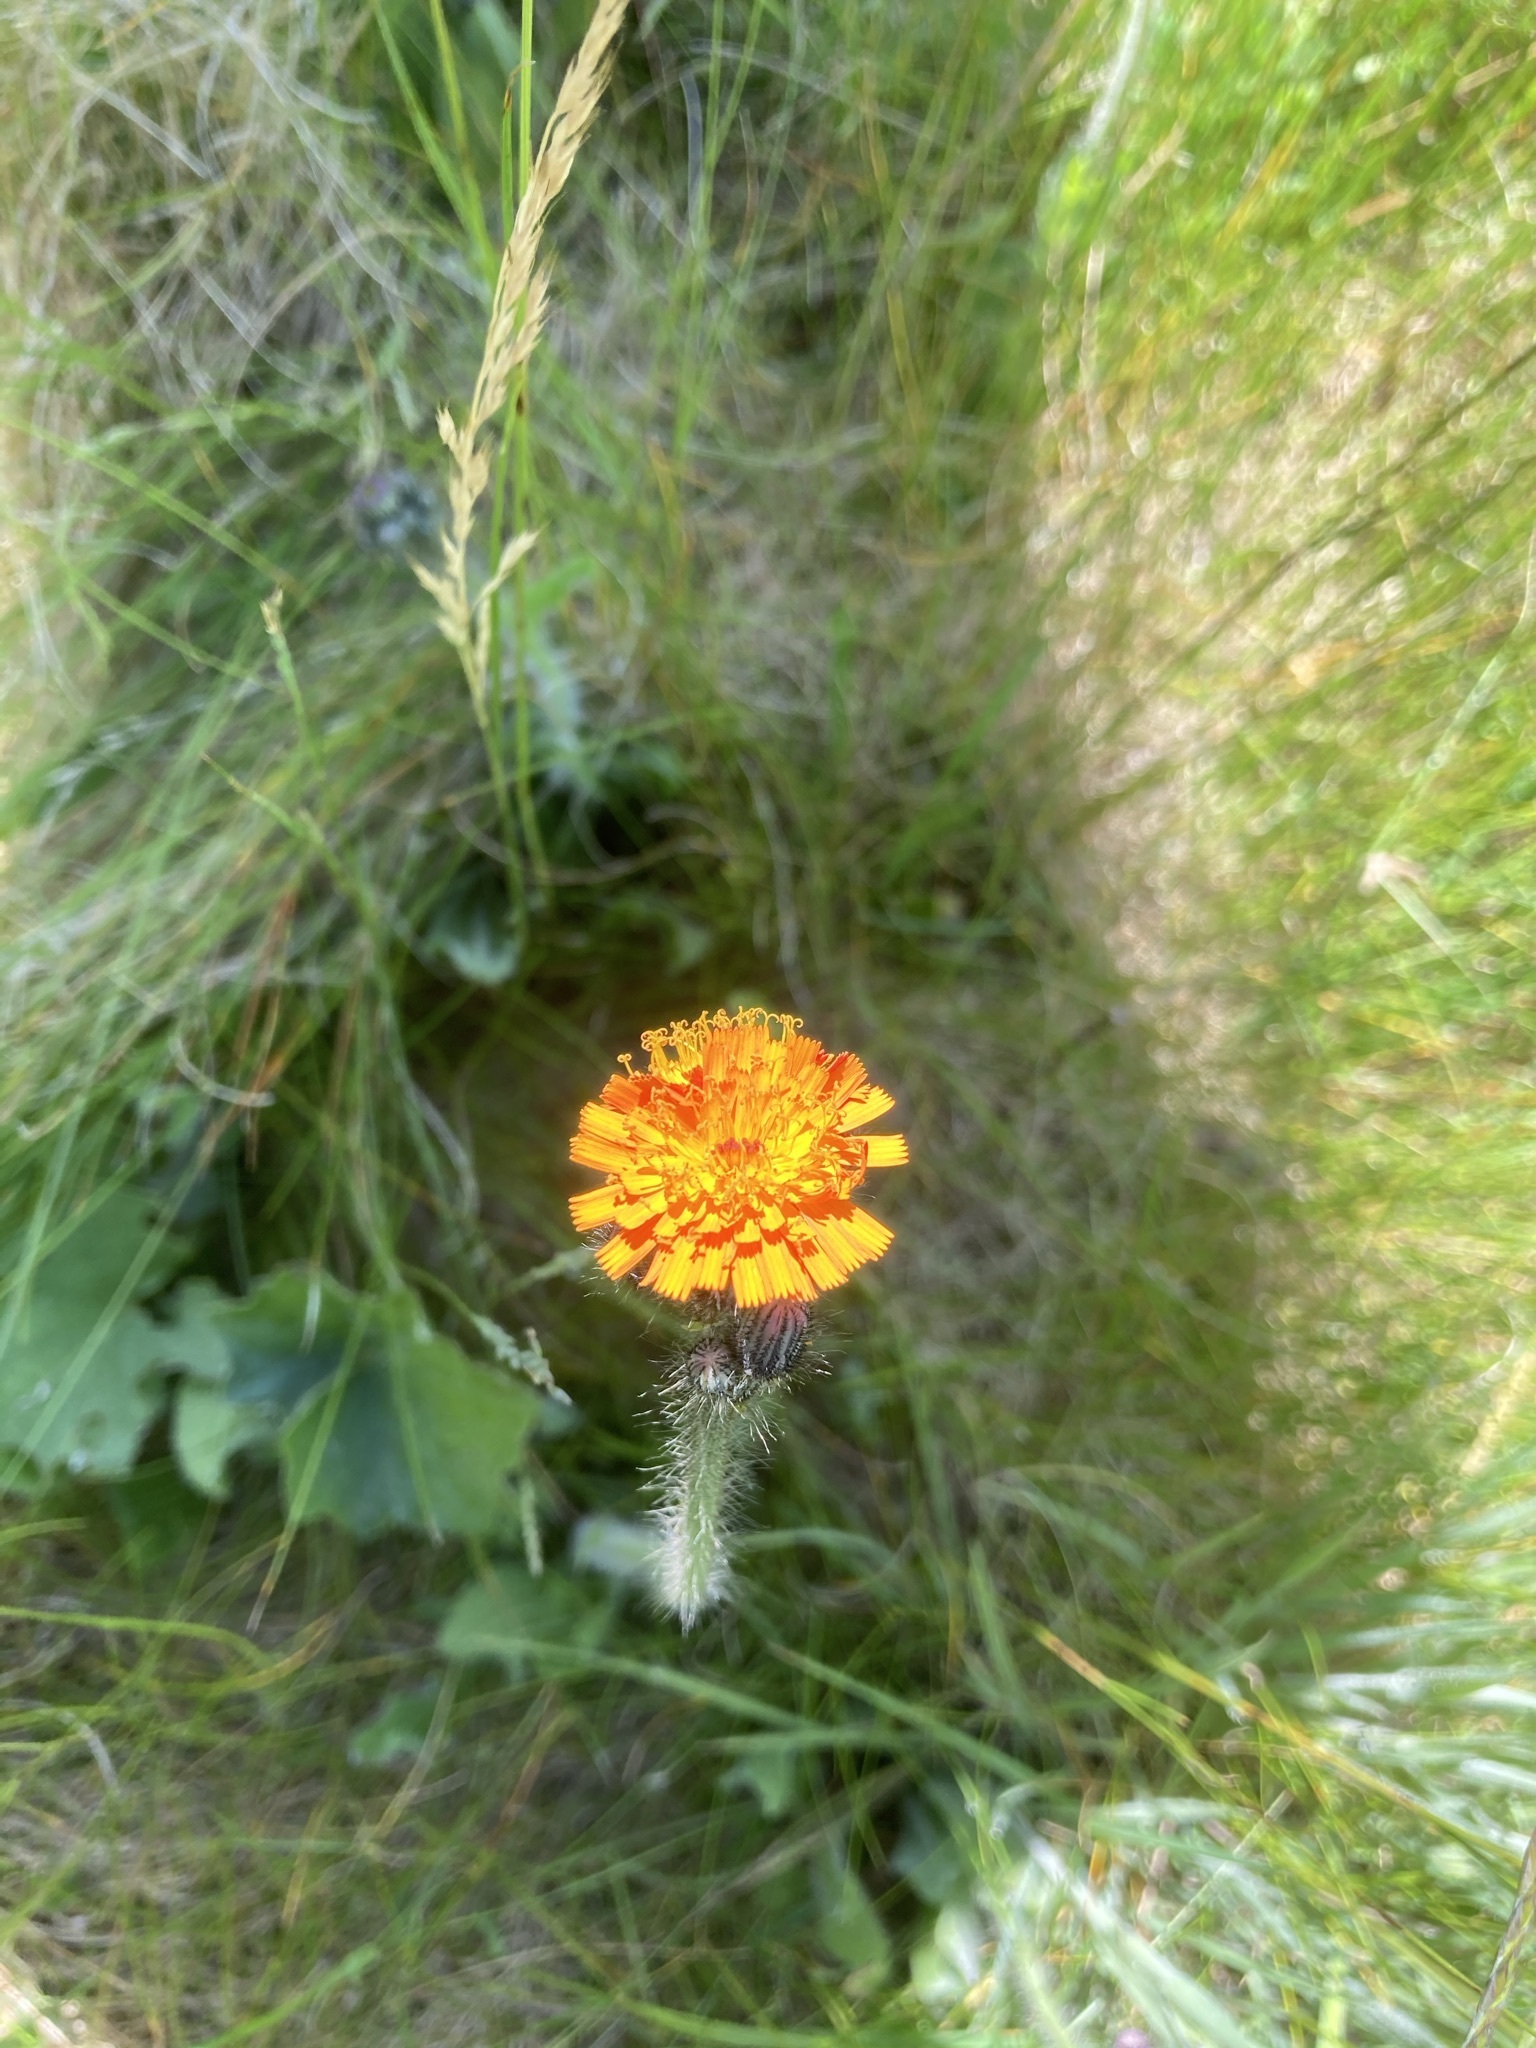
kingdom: Plantae
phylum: Tracheophyta
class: Magnoliopsida
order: Asterales
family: Asteraceae
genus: Pilosella
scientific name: Pilosella aurantiaca
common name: Fox-and-cubs
